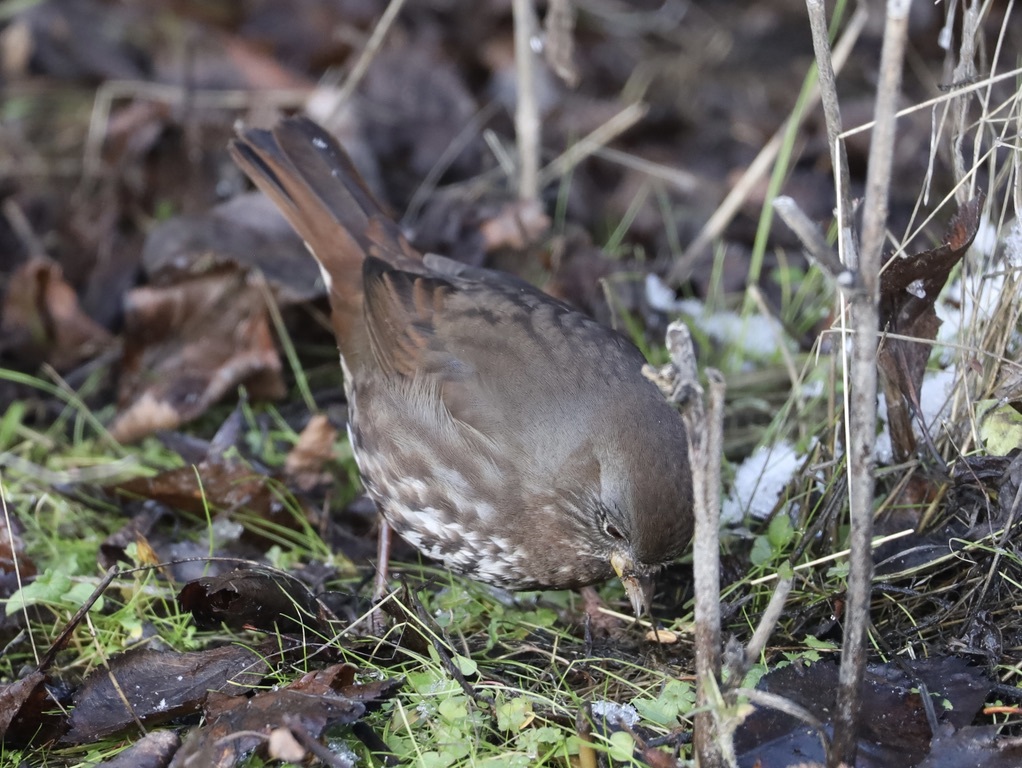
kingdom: Animalia
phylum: Chordata
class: Aves
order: Passeriformes
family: Passerellidae
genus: Passerella
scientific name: Passerella iliaca
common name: Fox sparrow
